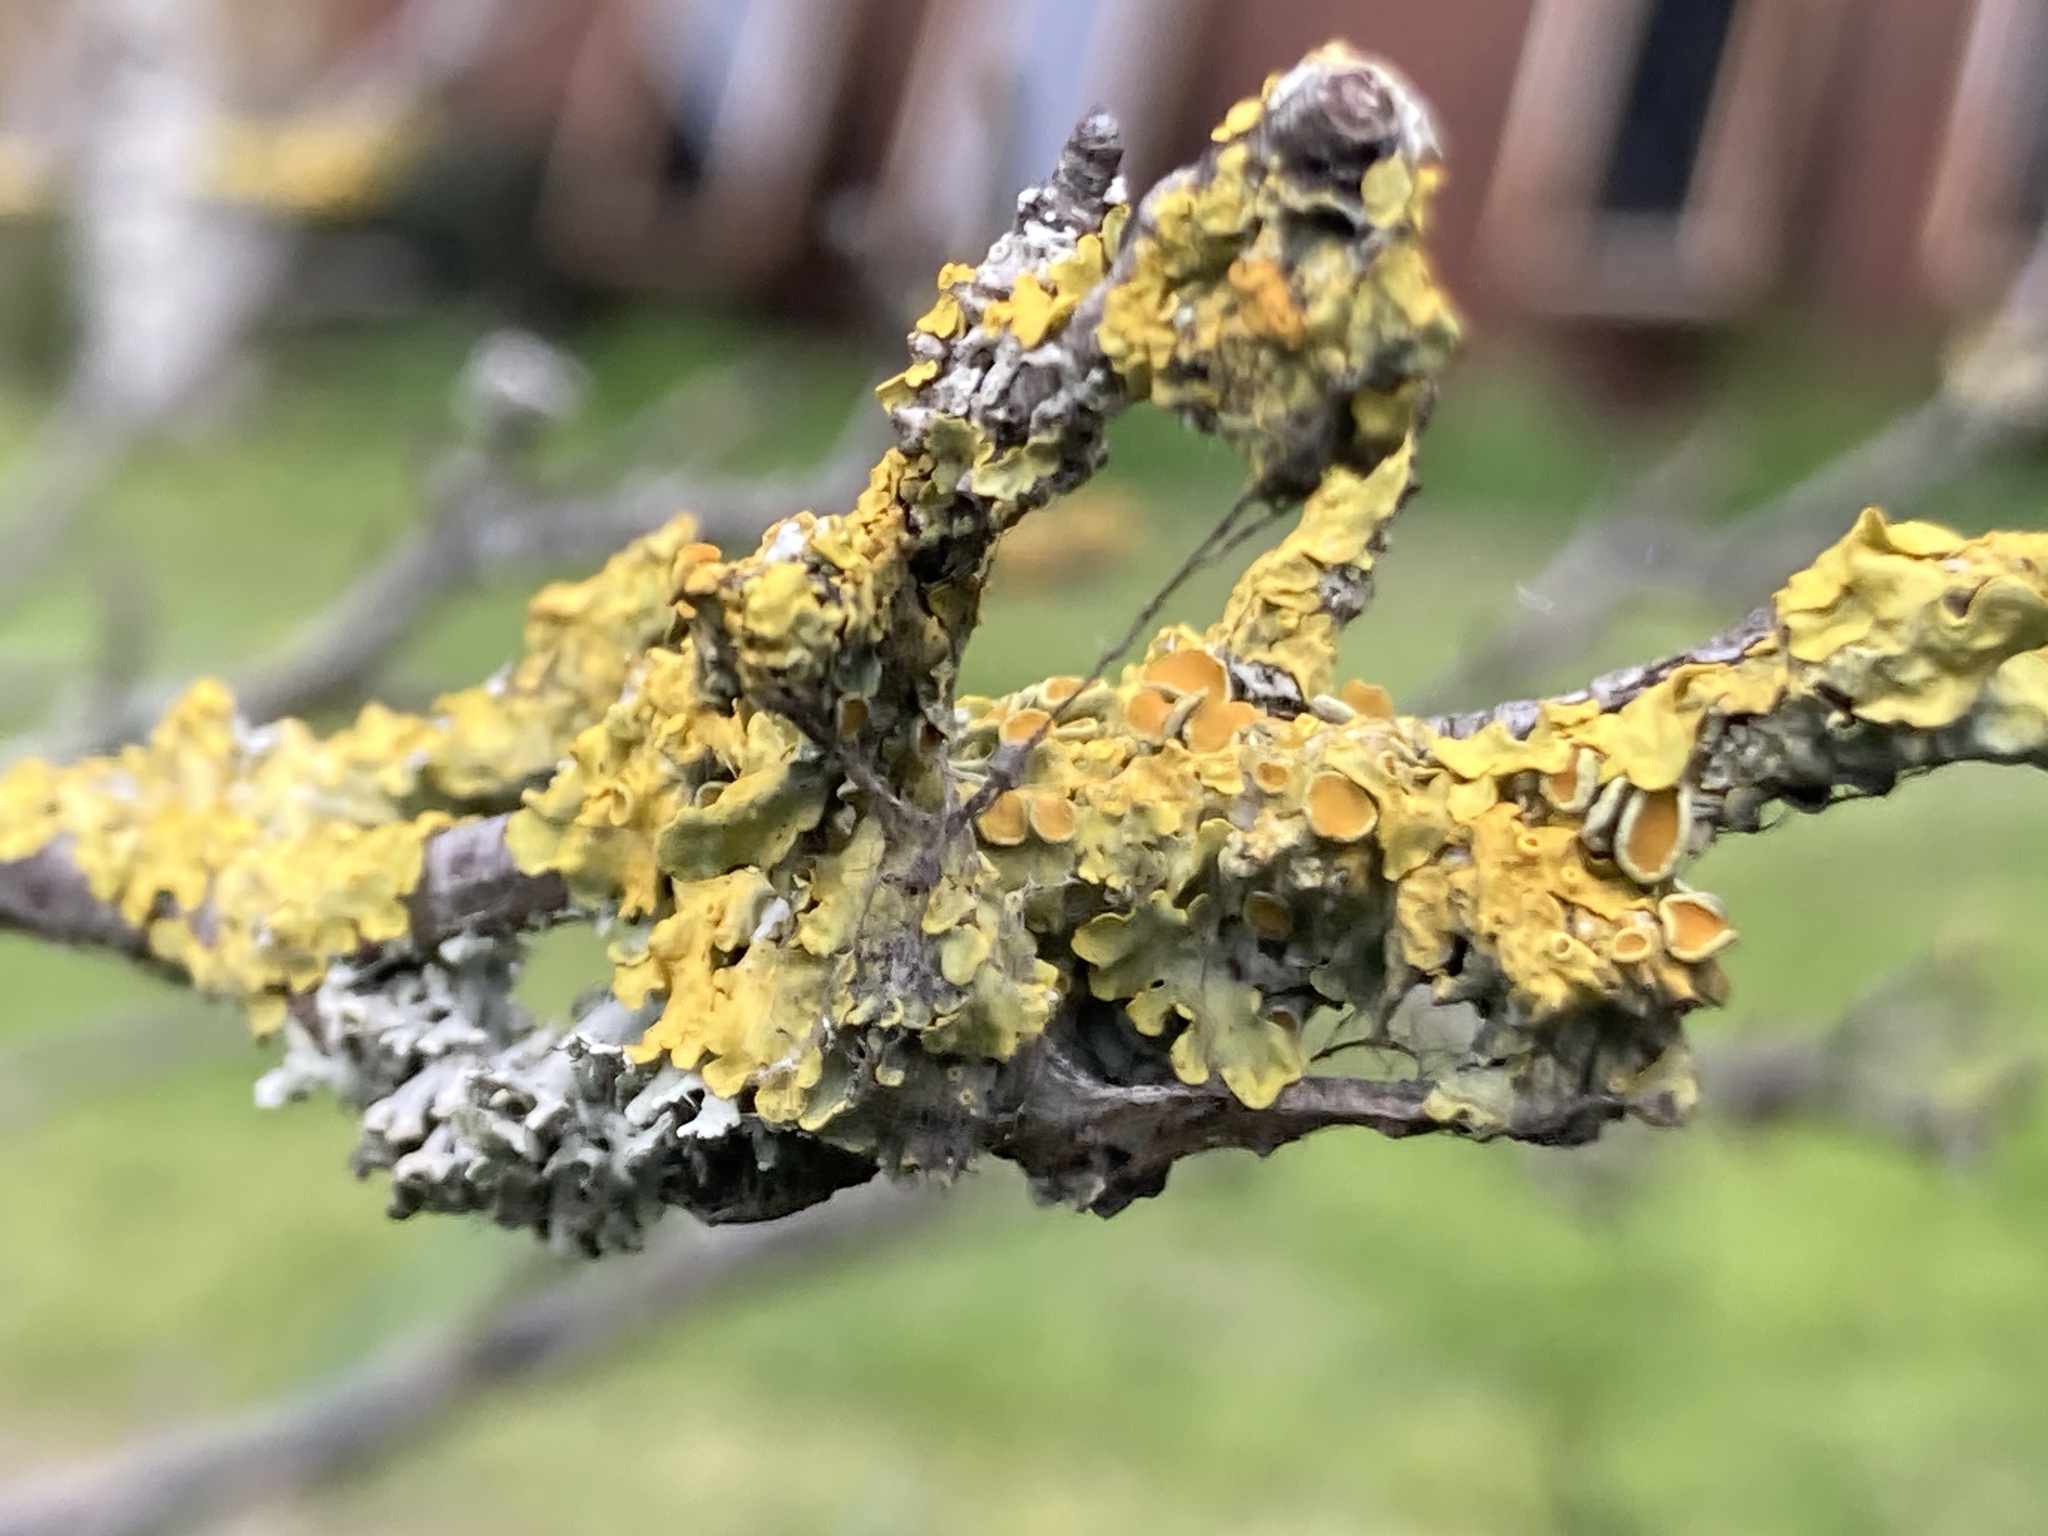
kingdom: Fungi
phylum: Ascomycota
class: Lecanoromycetes
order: Teloschistales
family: Teloschistaceae
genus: Xanthoria
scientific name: Xanthoria parietina
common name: Common orange lichen
